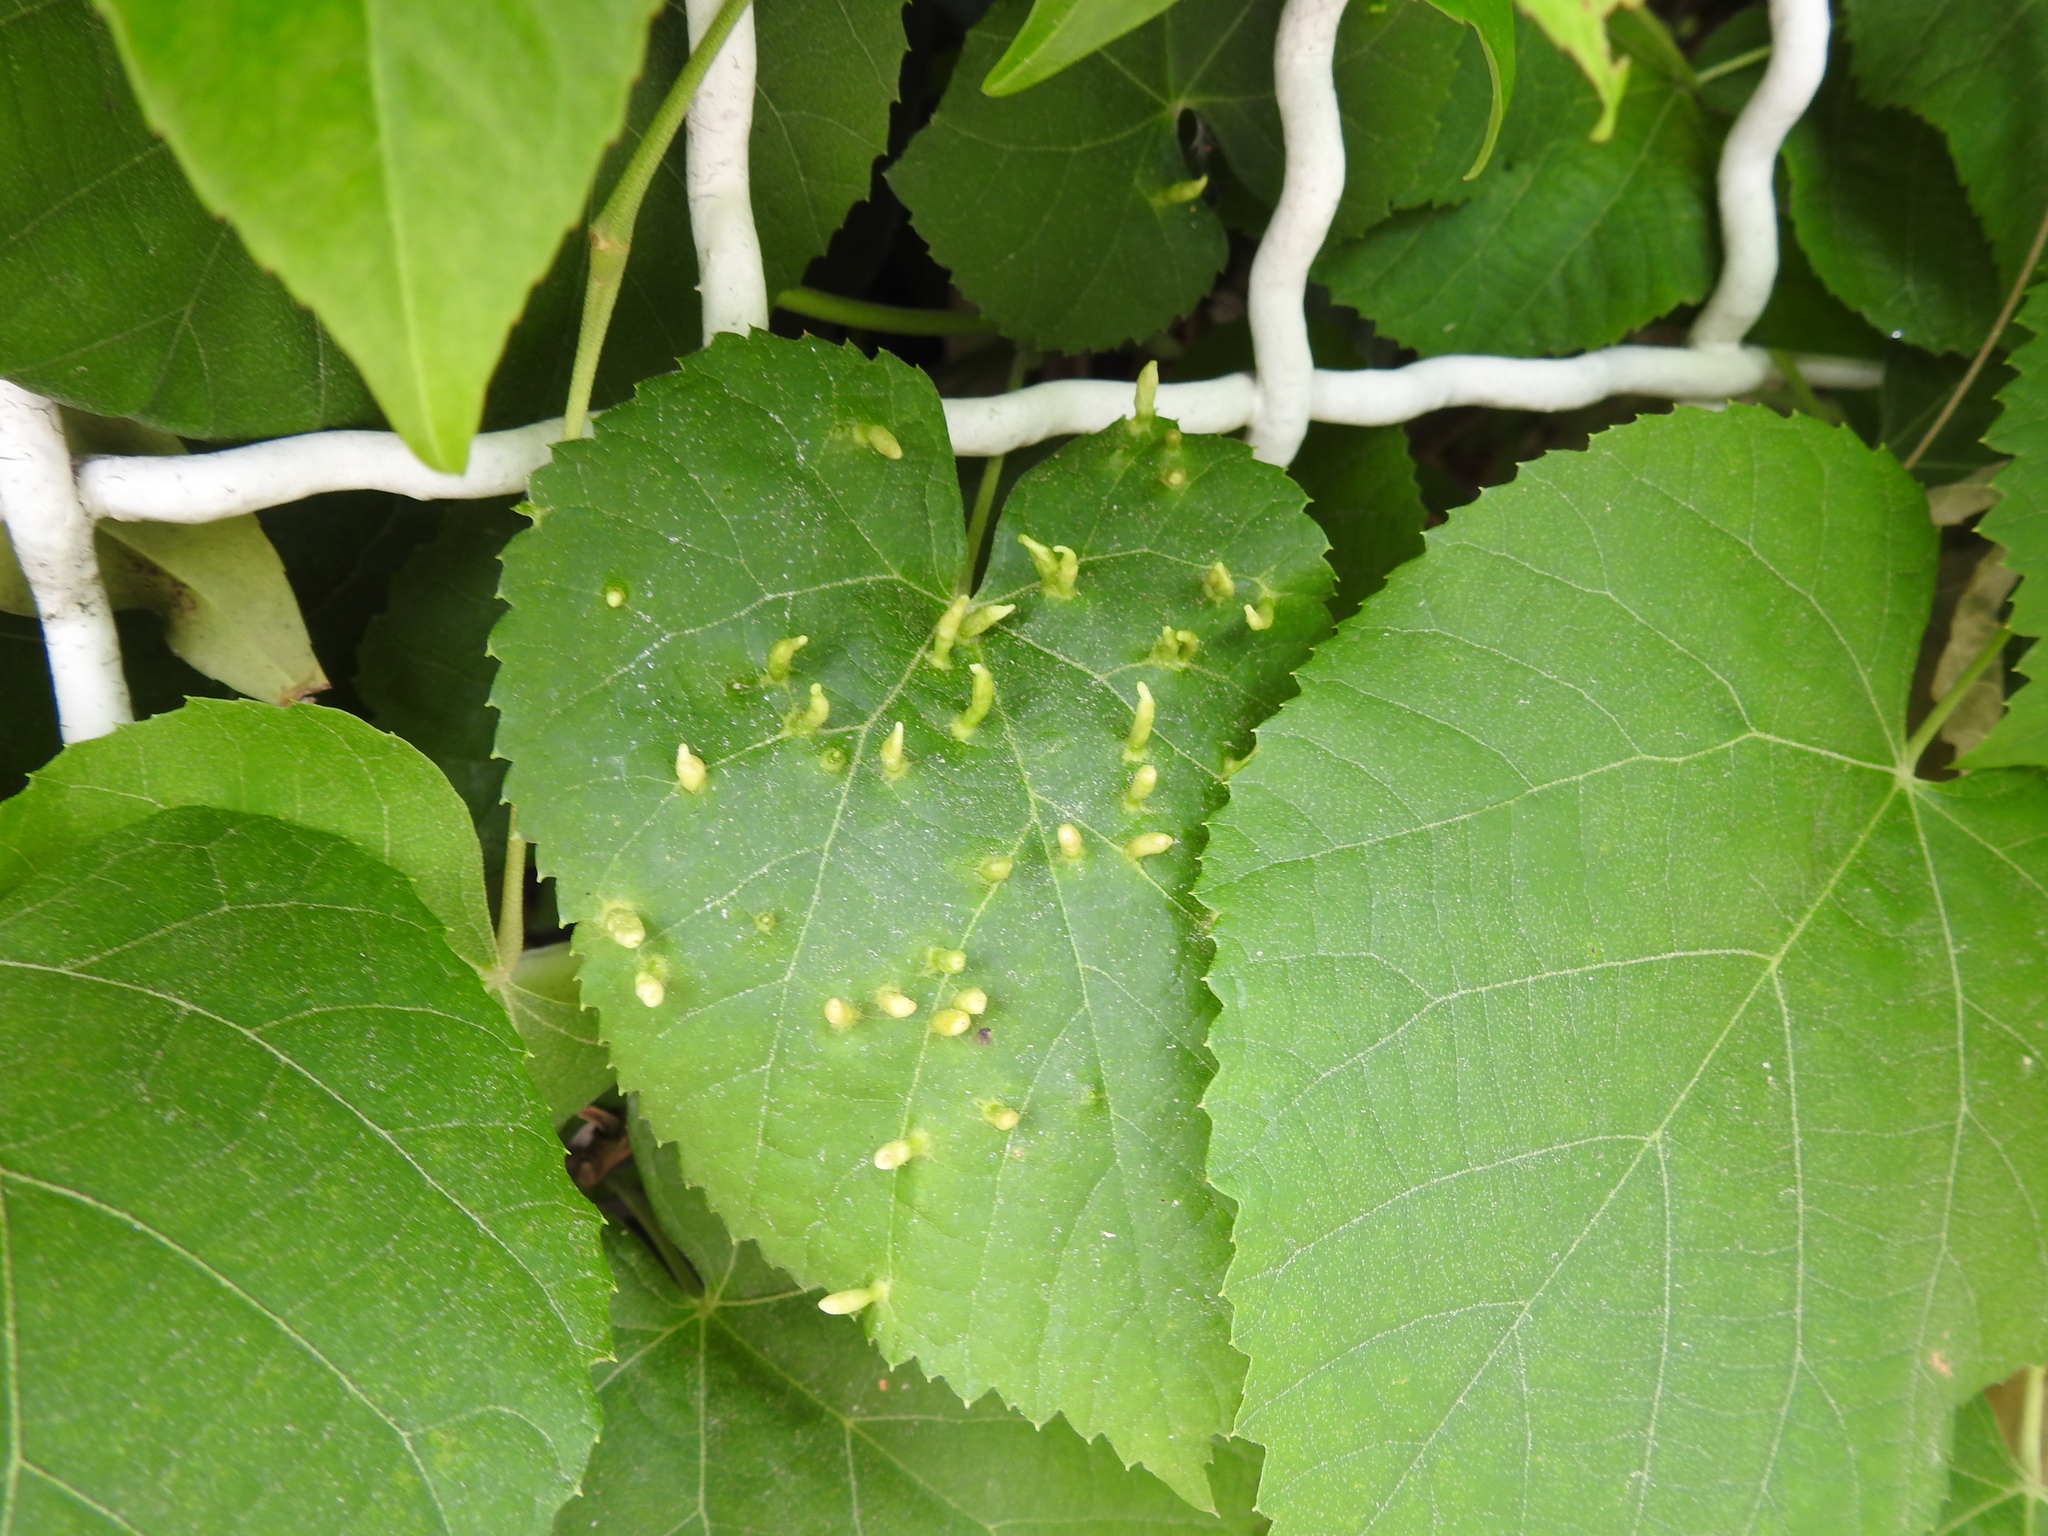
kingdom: Animalia
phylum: Arthropoda
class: Arachnida
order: Trombidiformes
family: Eriophyidae
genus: Eriophyes
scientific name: Eriophyes tiliae
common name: Red nail gall mite
